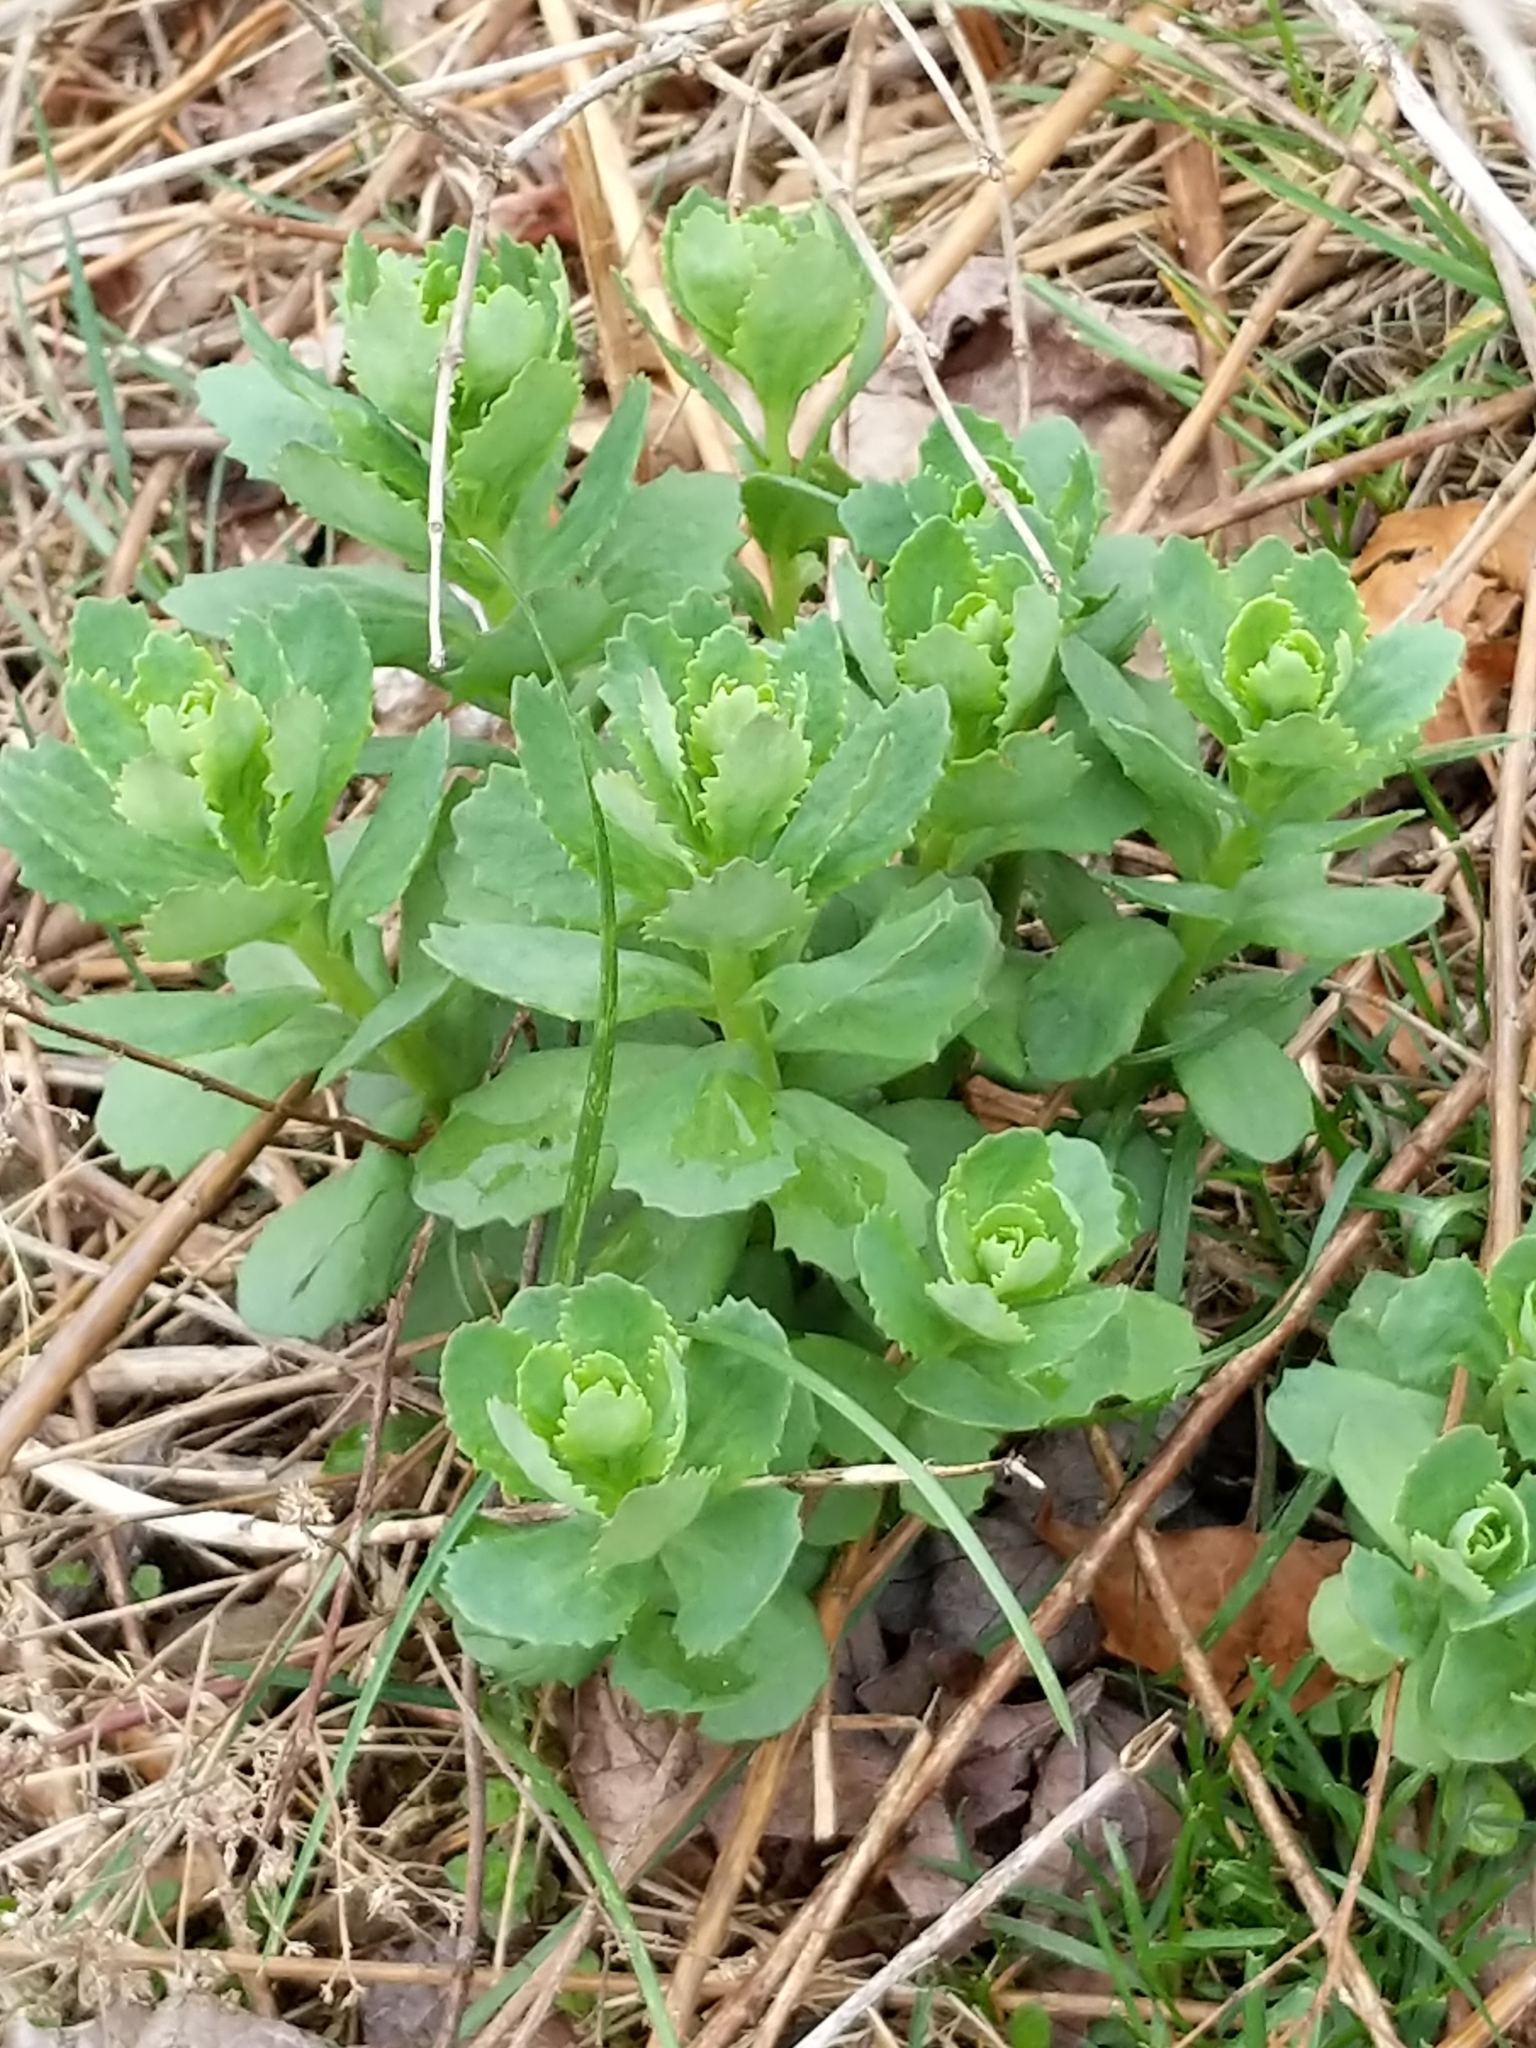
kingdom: Plantae
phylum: Tracheophyta
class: Magnoliopsida
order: Saxifragales
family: Crassulaceae
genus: Hylotelephium
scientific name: Hylotelephium telephium
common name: Live-forever
